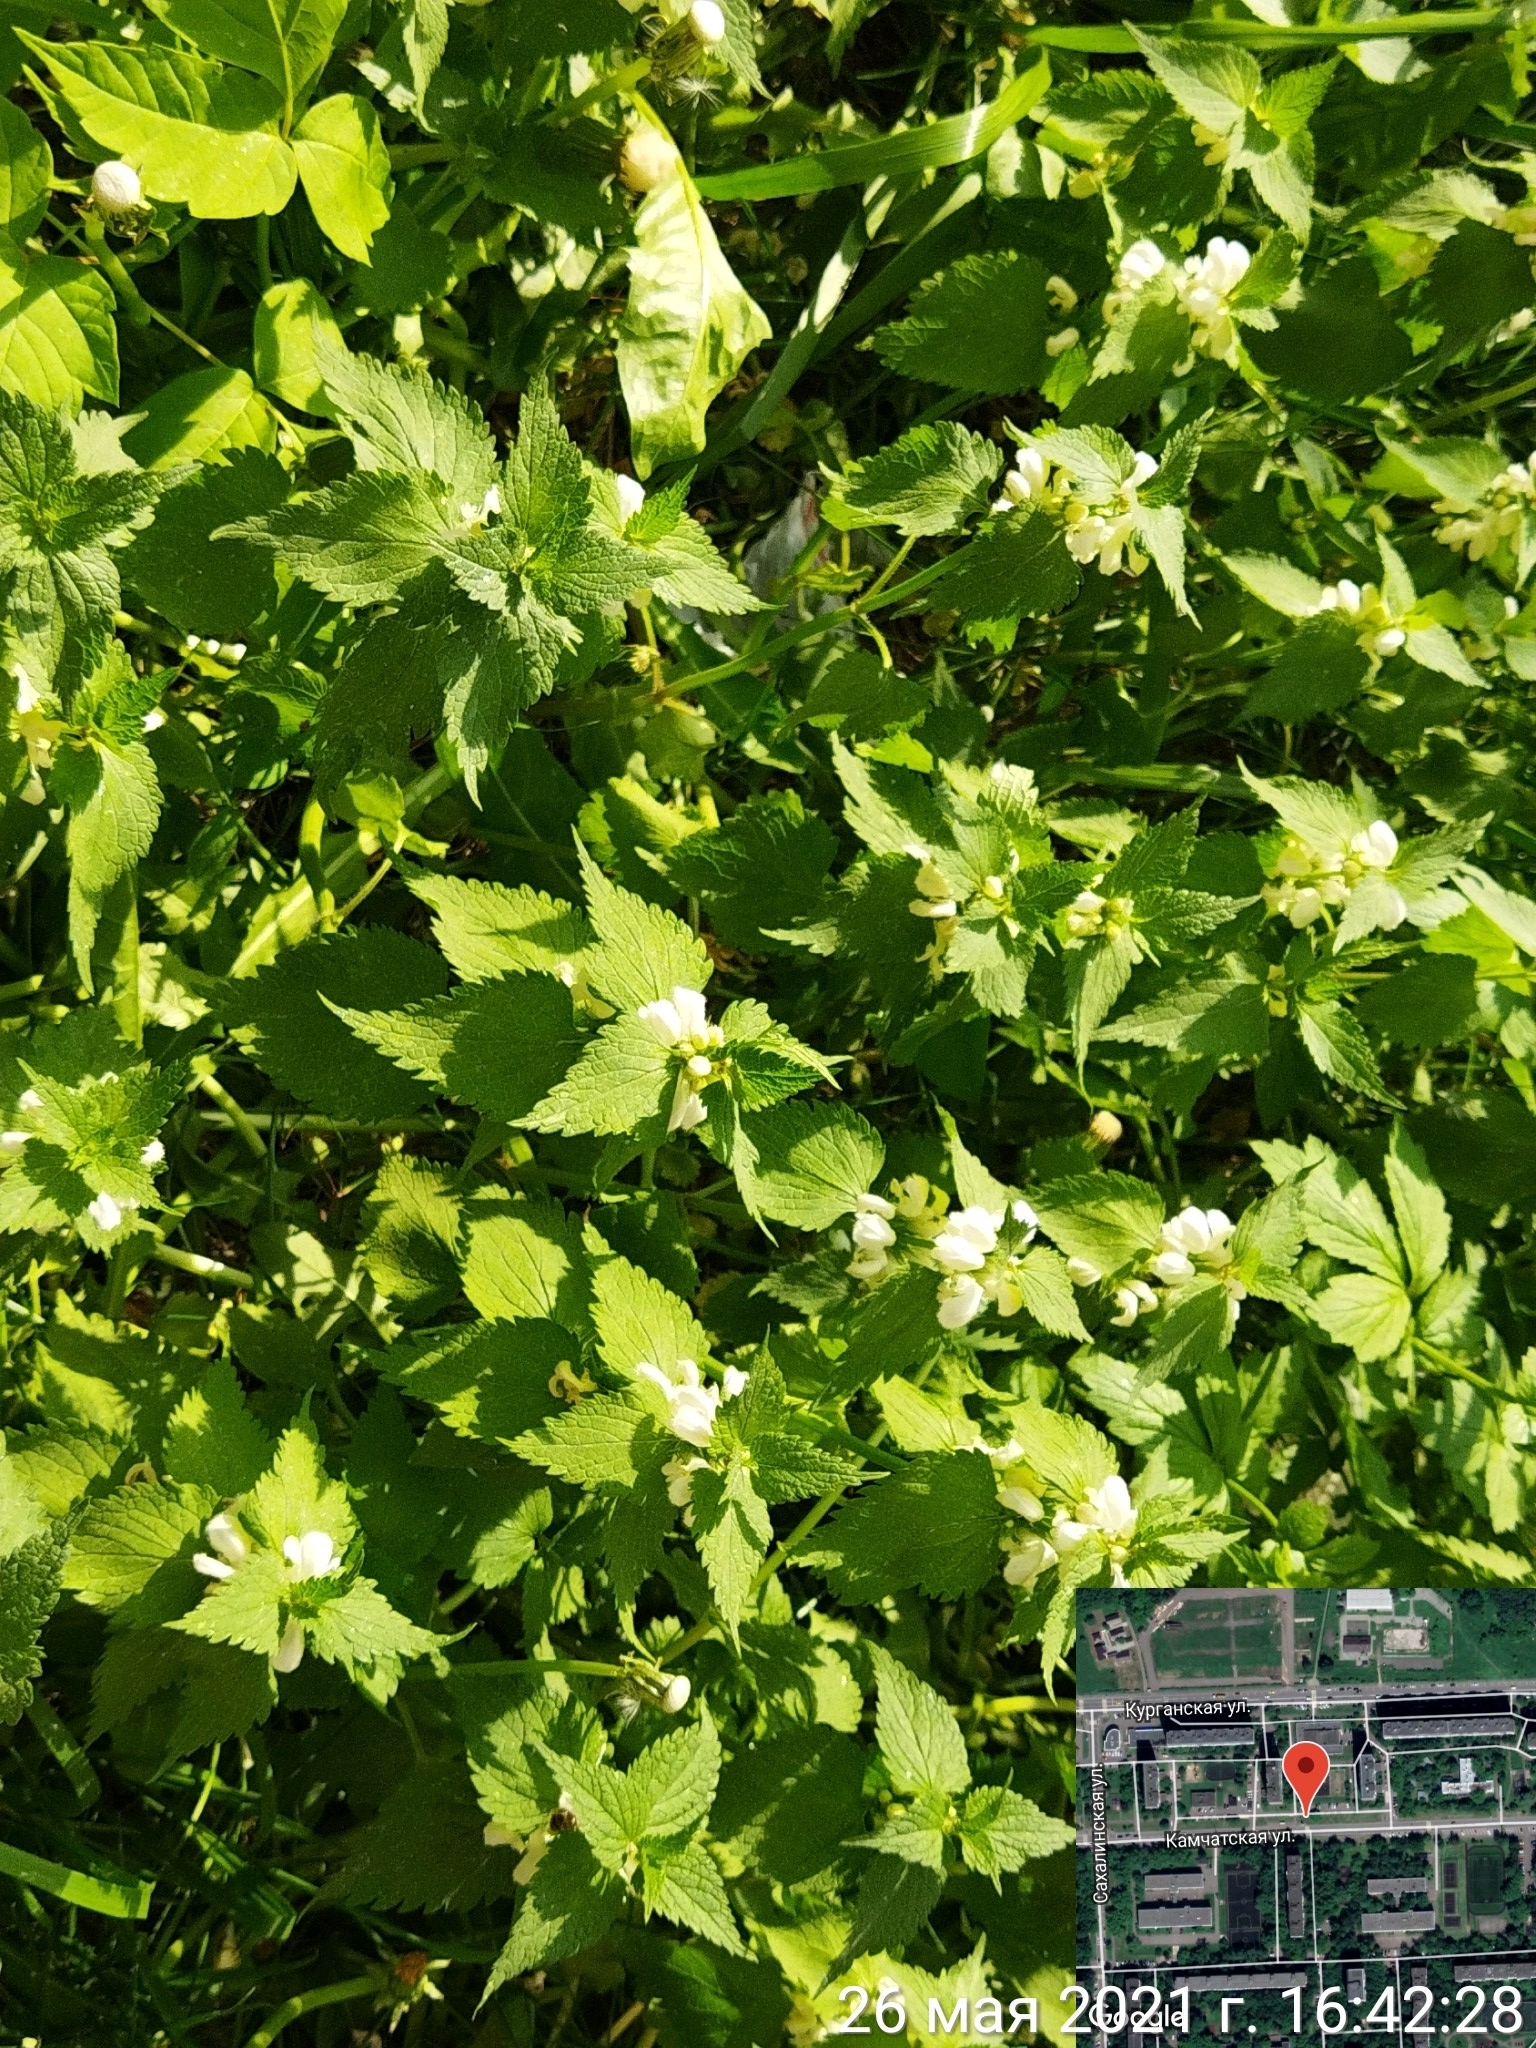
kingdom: Plantae
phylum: Tracheophyta
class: Magnoliopsida
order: Lamiales
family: Lamiaceae
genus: Lamium
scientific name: Lamium album
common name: White dead-nettle
